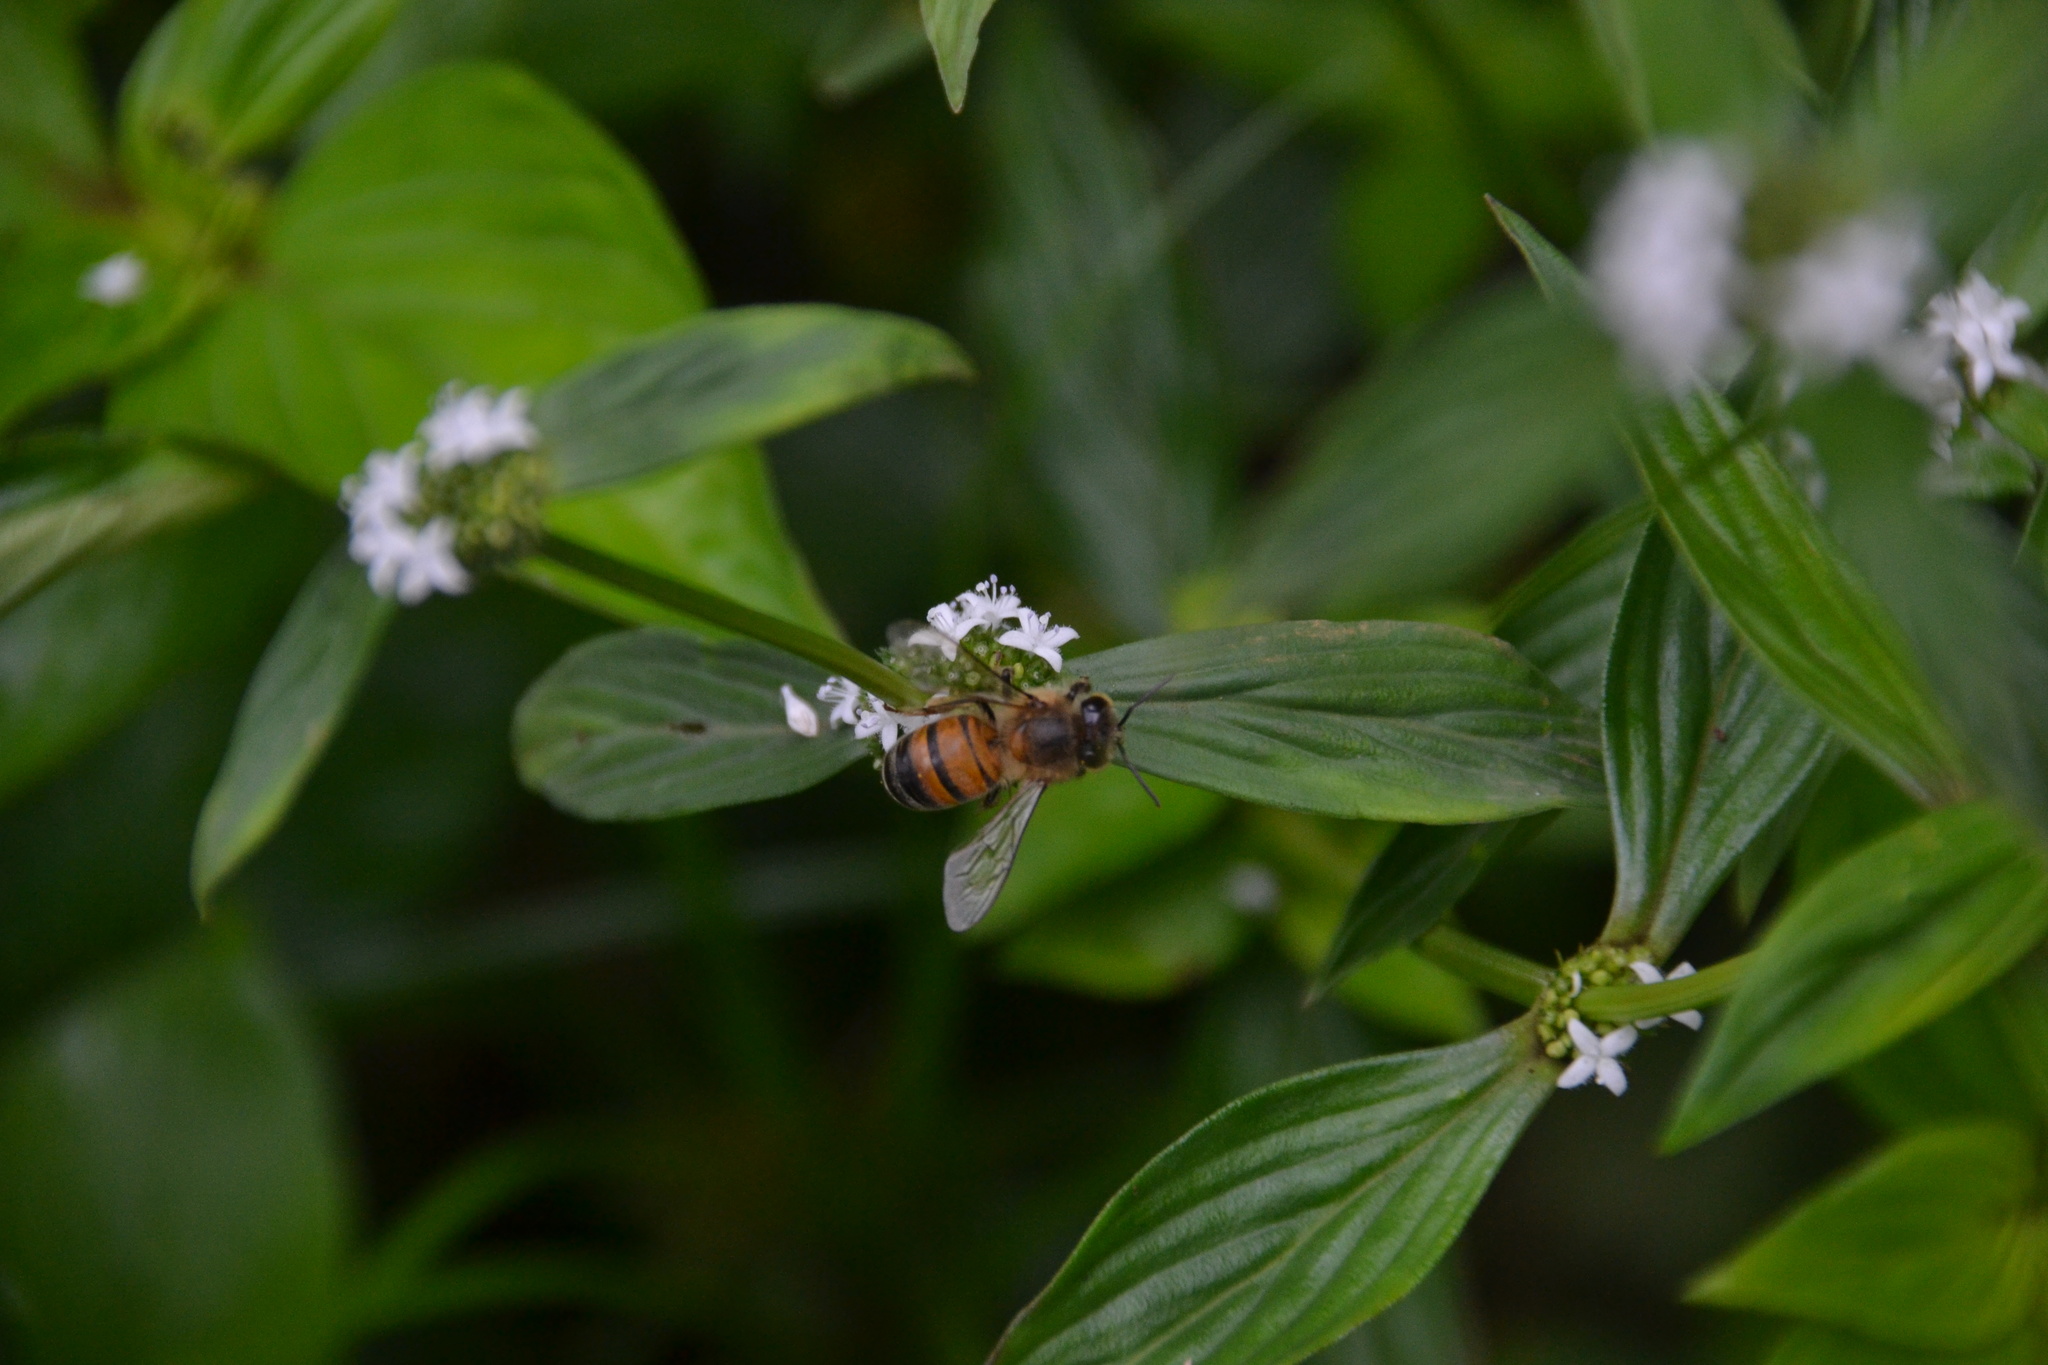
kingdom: Animalia
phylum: Arthropoda
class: Insecta
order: Hymenoptera
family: Apidae
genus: Apis
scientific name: Apis mellifera
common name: Honey bee
